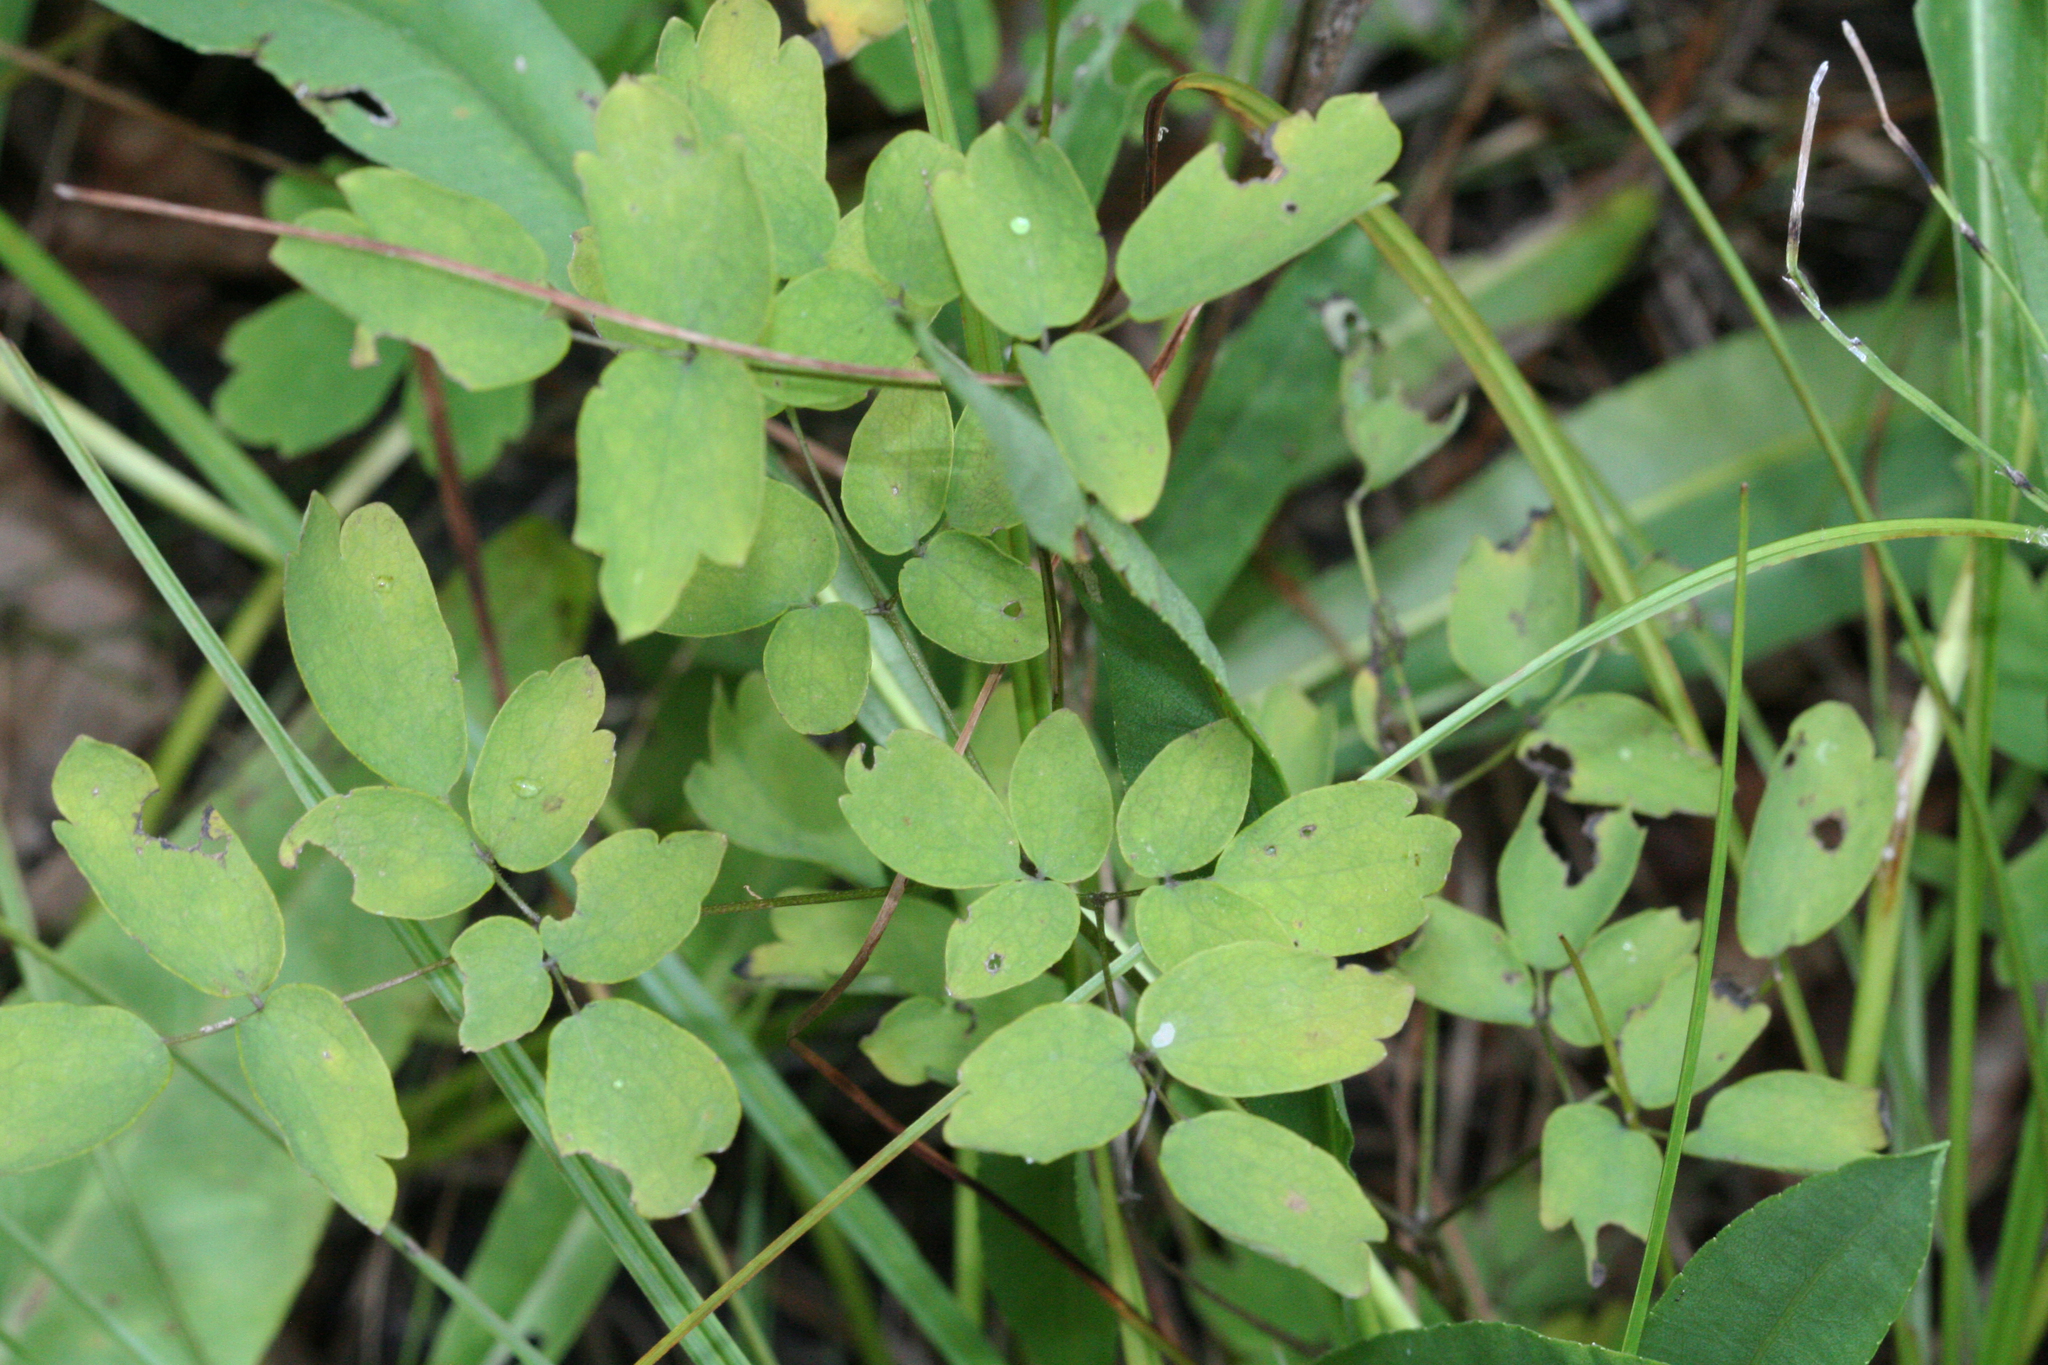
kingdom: Plantae
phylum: Tracheophyta
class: Magnoliopsida
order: Ranunculales
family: Ranunculaceae
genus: Thalictrum
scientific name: Thalictrum pubescens
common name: King-of-the-meadow
